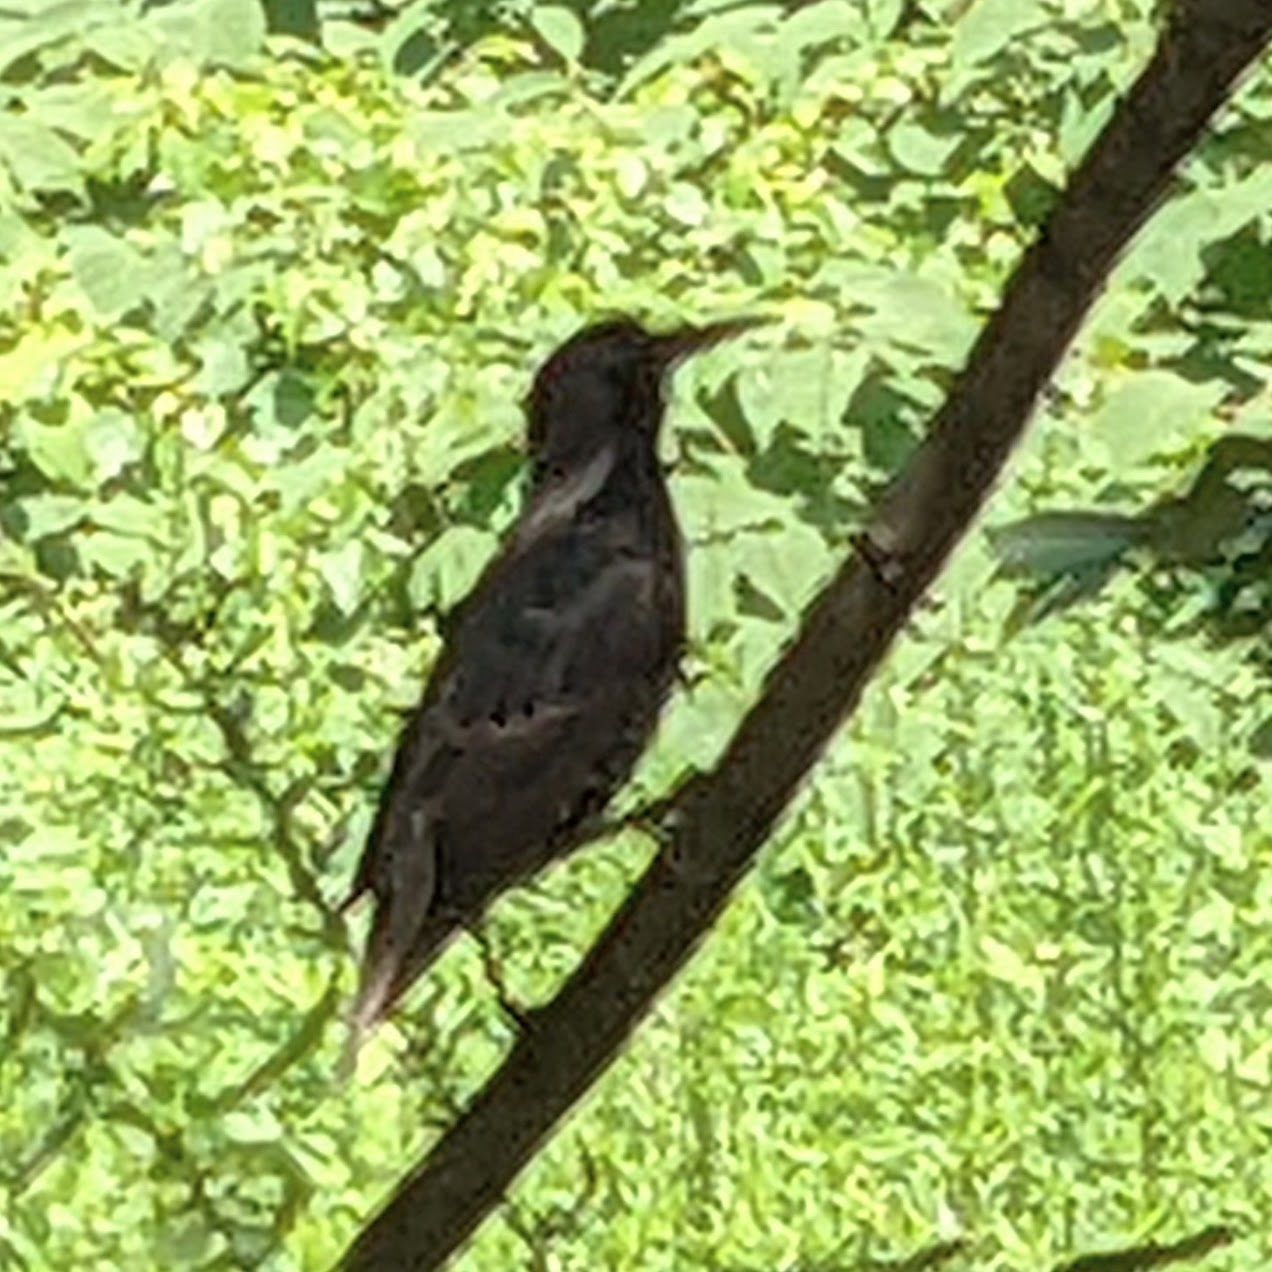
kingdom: Animalia
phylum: Chordata
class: Aves
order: Passeriformes
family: Sturnidae
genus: Sturnus
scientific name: Sturnus vulgaris
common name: Common starling
